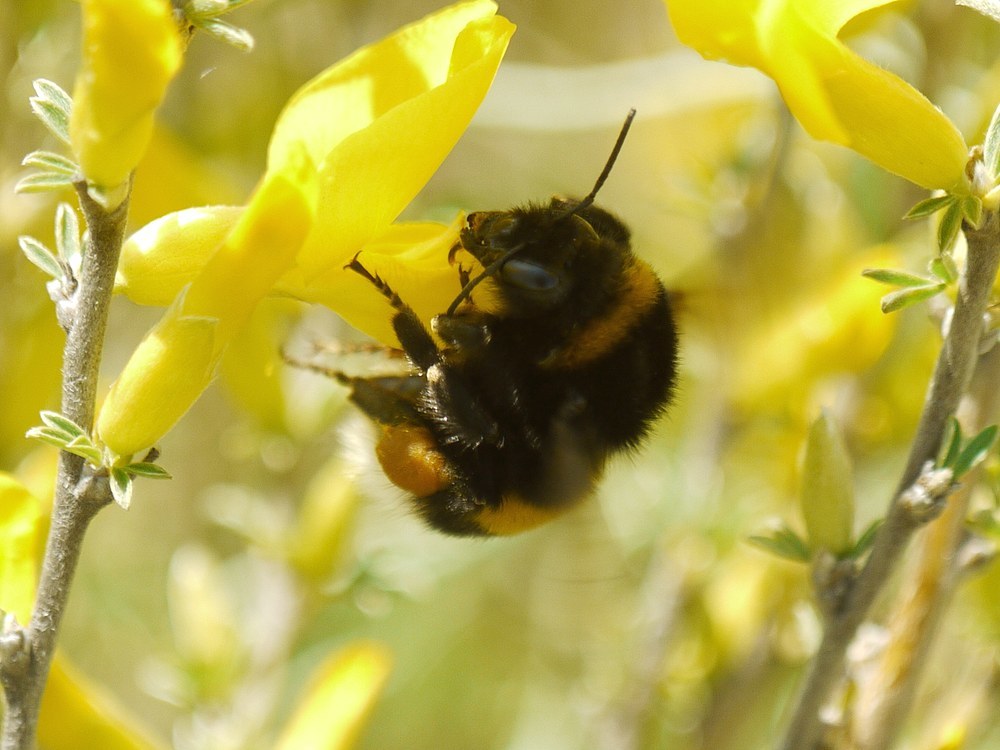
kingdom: Animalia
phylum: Arthropoda
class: Insecta
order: Hymenoptera
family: Apidae
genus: Bombus
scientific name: Bombus
